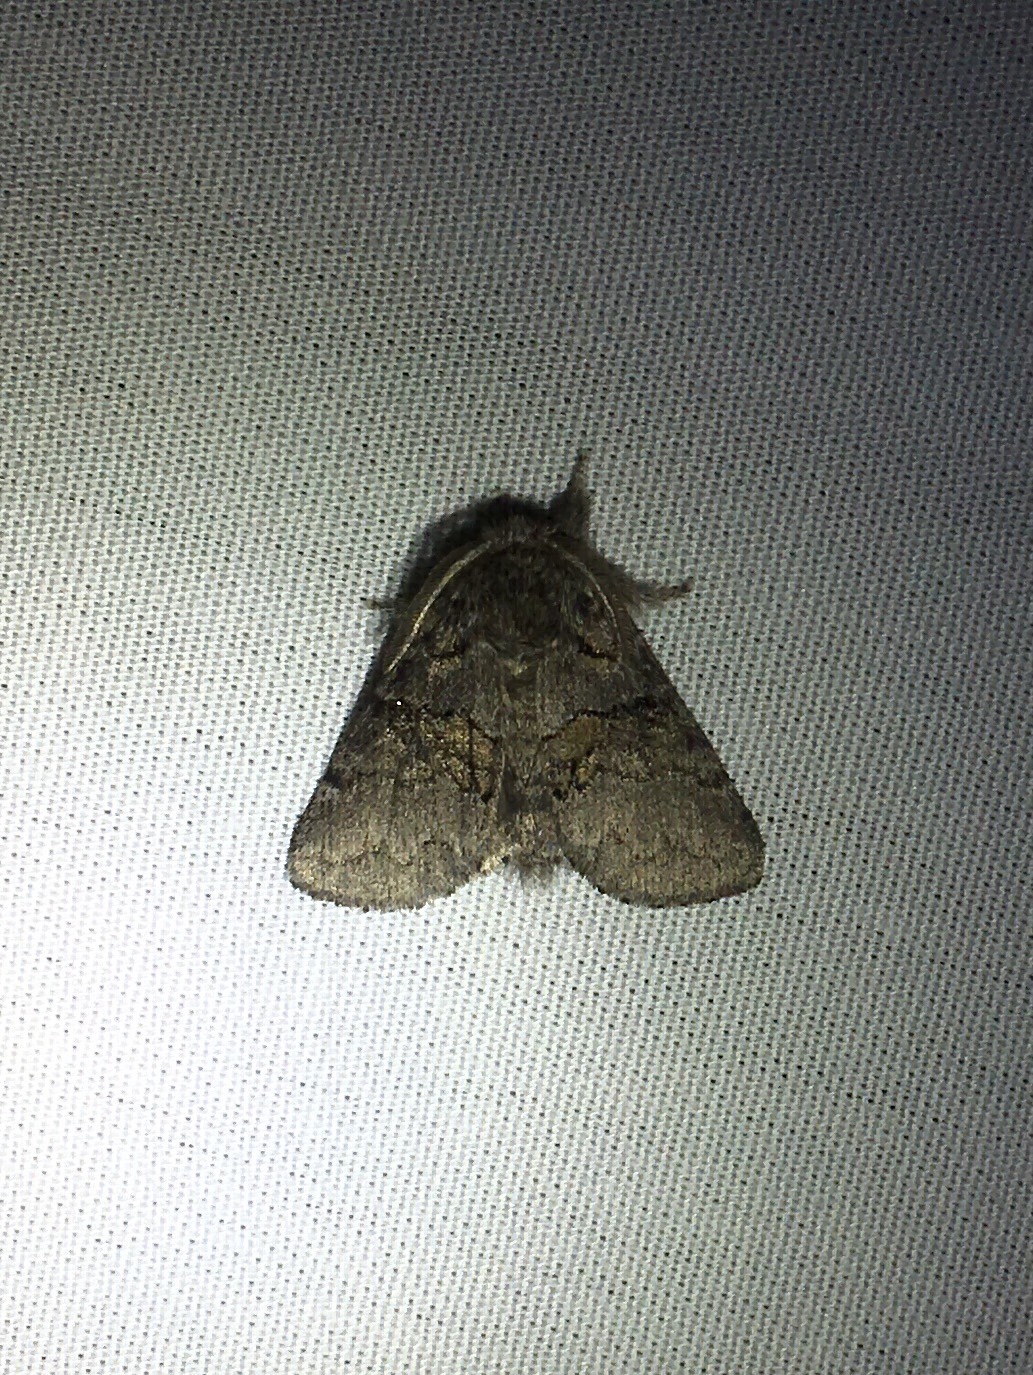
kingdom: Animalia
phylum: Arthropoda
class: Insecta
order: Lepidoptera
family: Notodontidae
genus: Gluphisia
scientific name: Gluphisia septentrionis
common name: Common gluphisia
